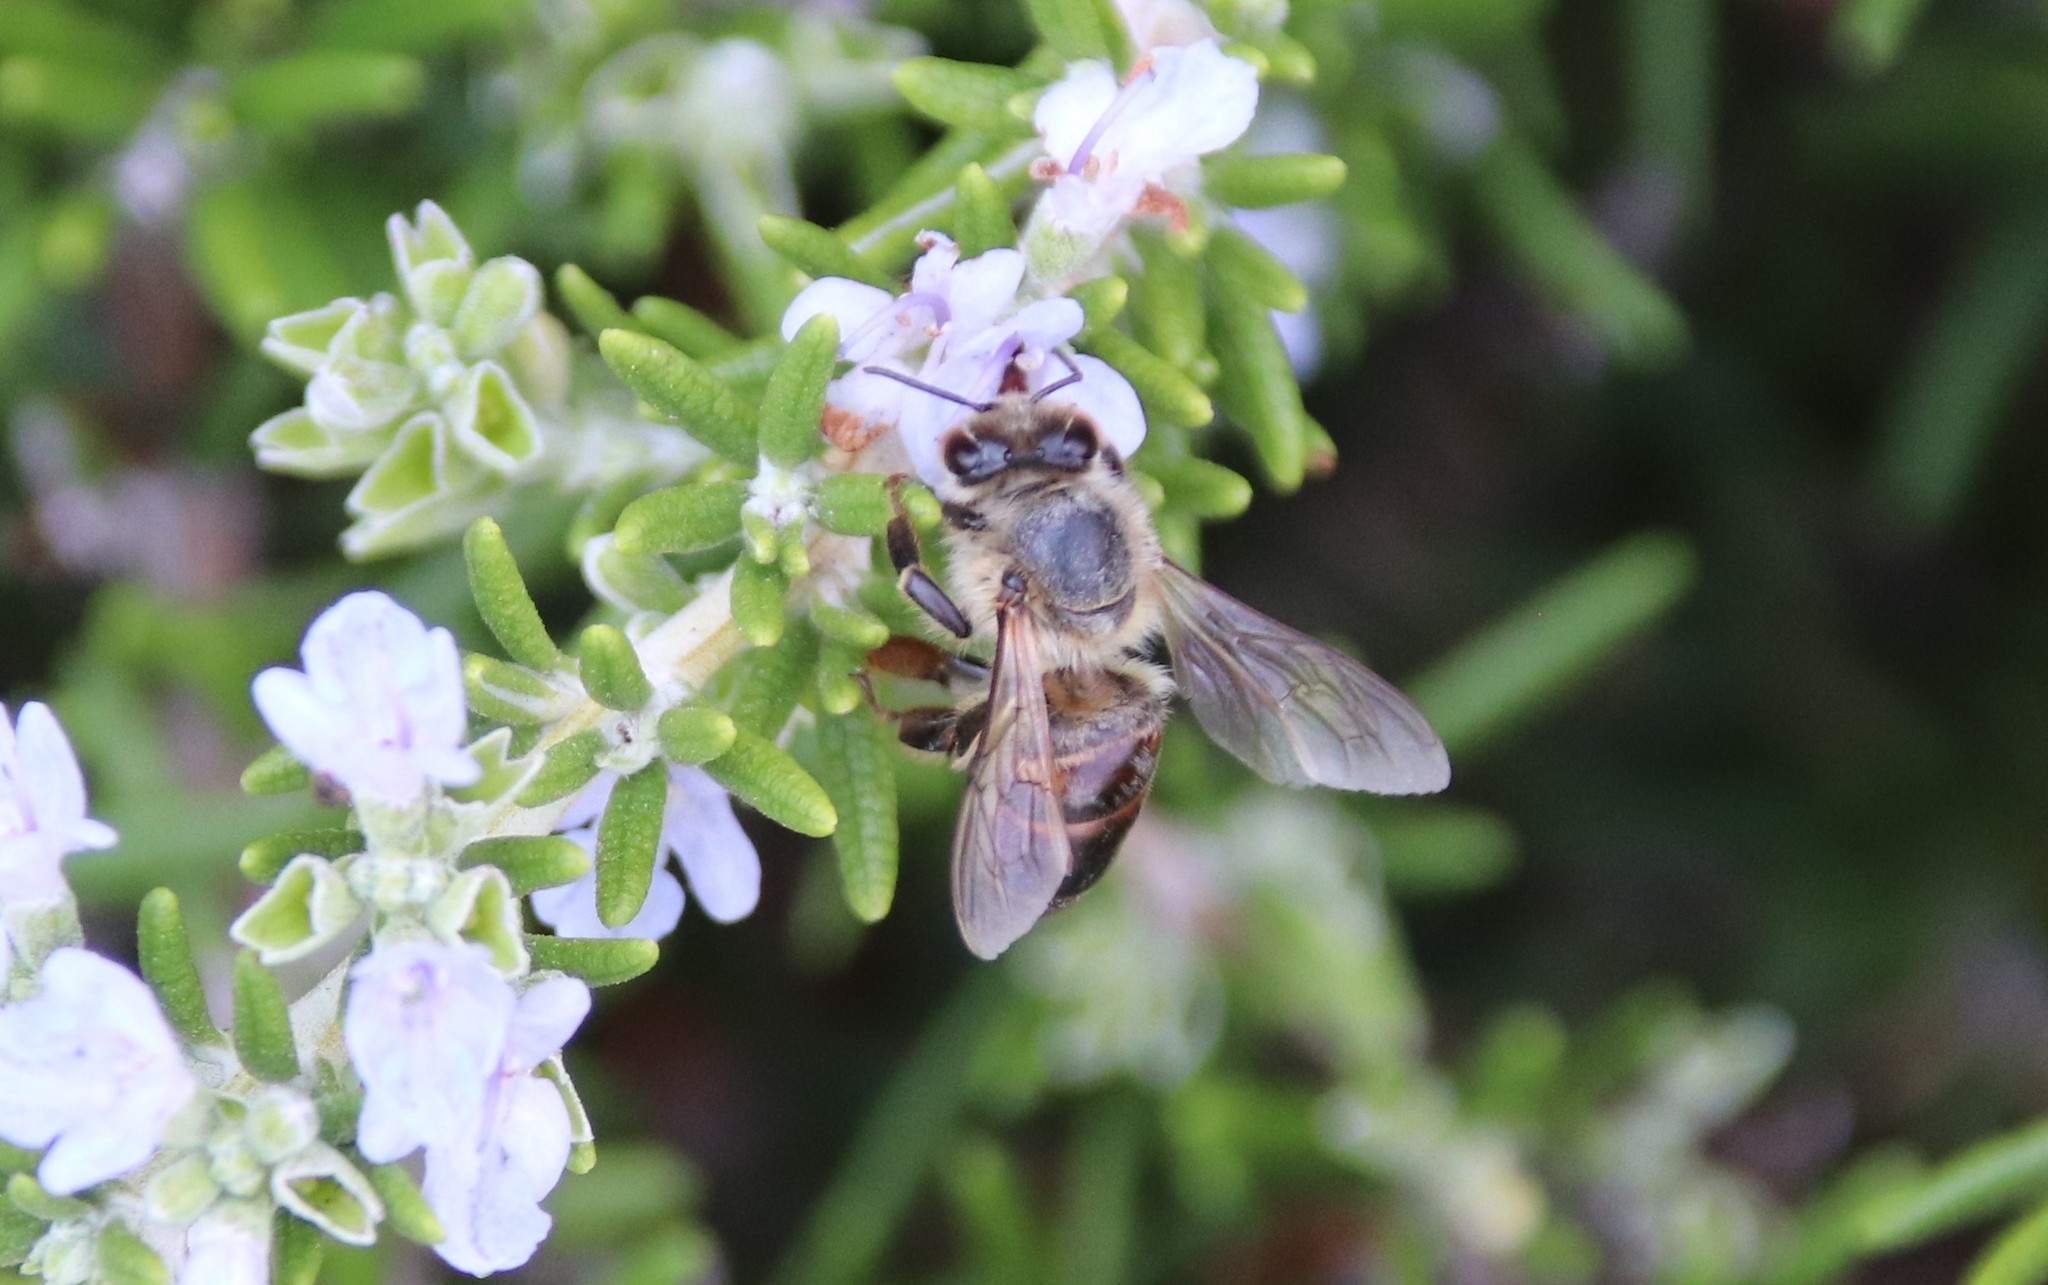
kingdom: Animalia
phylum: Arthropoda
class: Insecta
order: Hymenoptera
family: Apidae
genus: Apis
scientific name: Apis mellifera
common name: Honey bee
